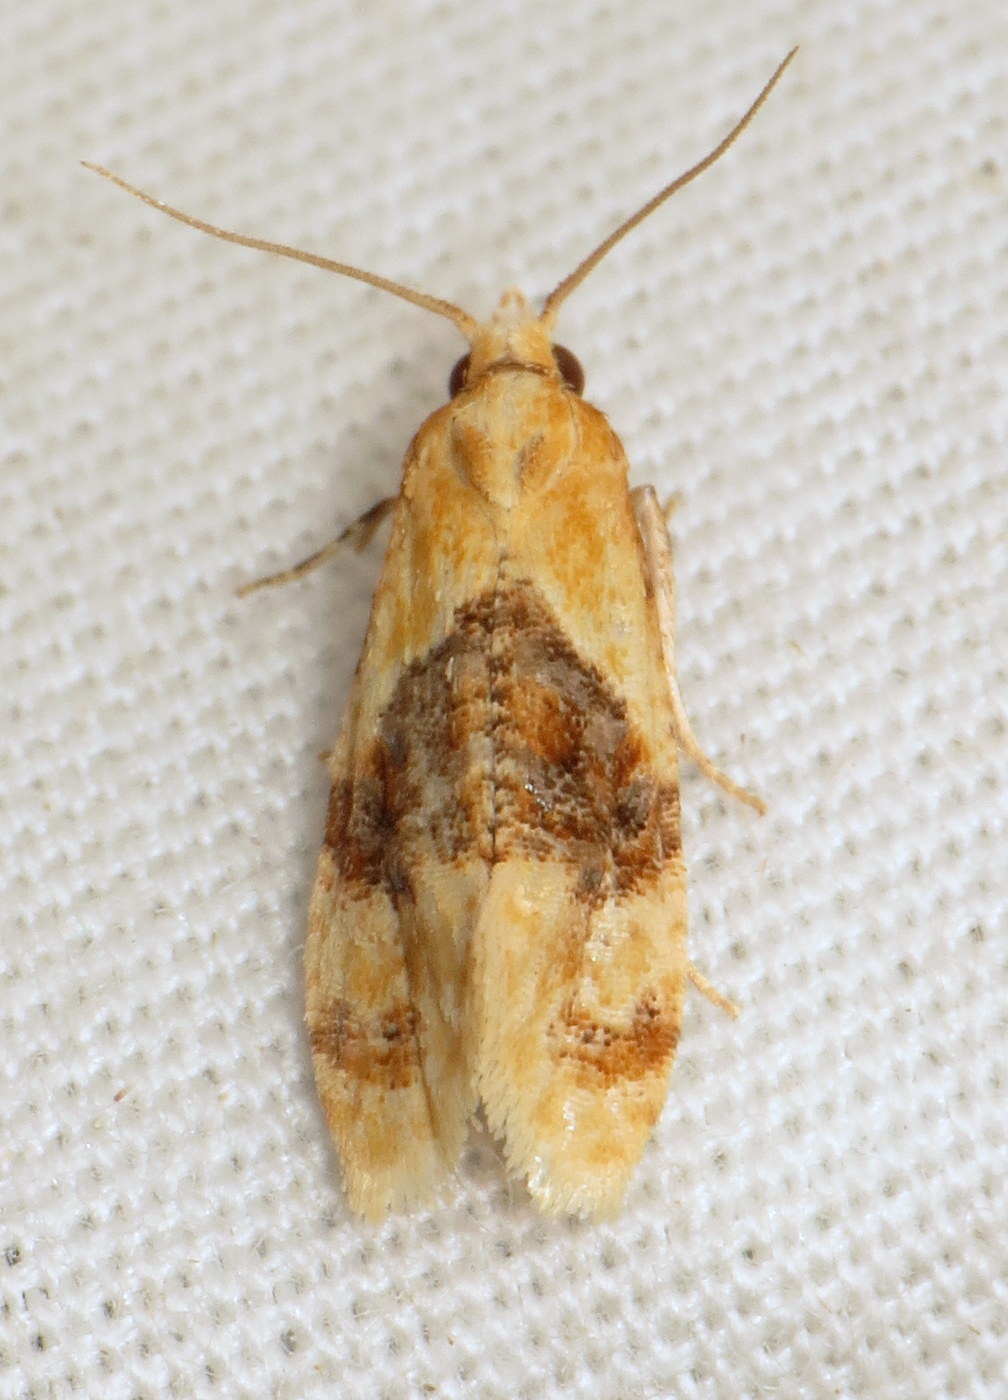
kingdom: Animalia
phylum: Arthropoda
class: Insecta
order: Lepidoptera
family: Tortricidae
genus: Cochylis
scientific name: Cochylis Cochylichroa hospes
